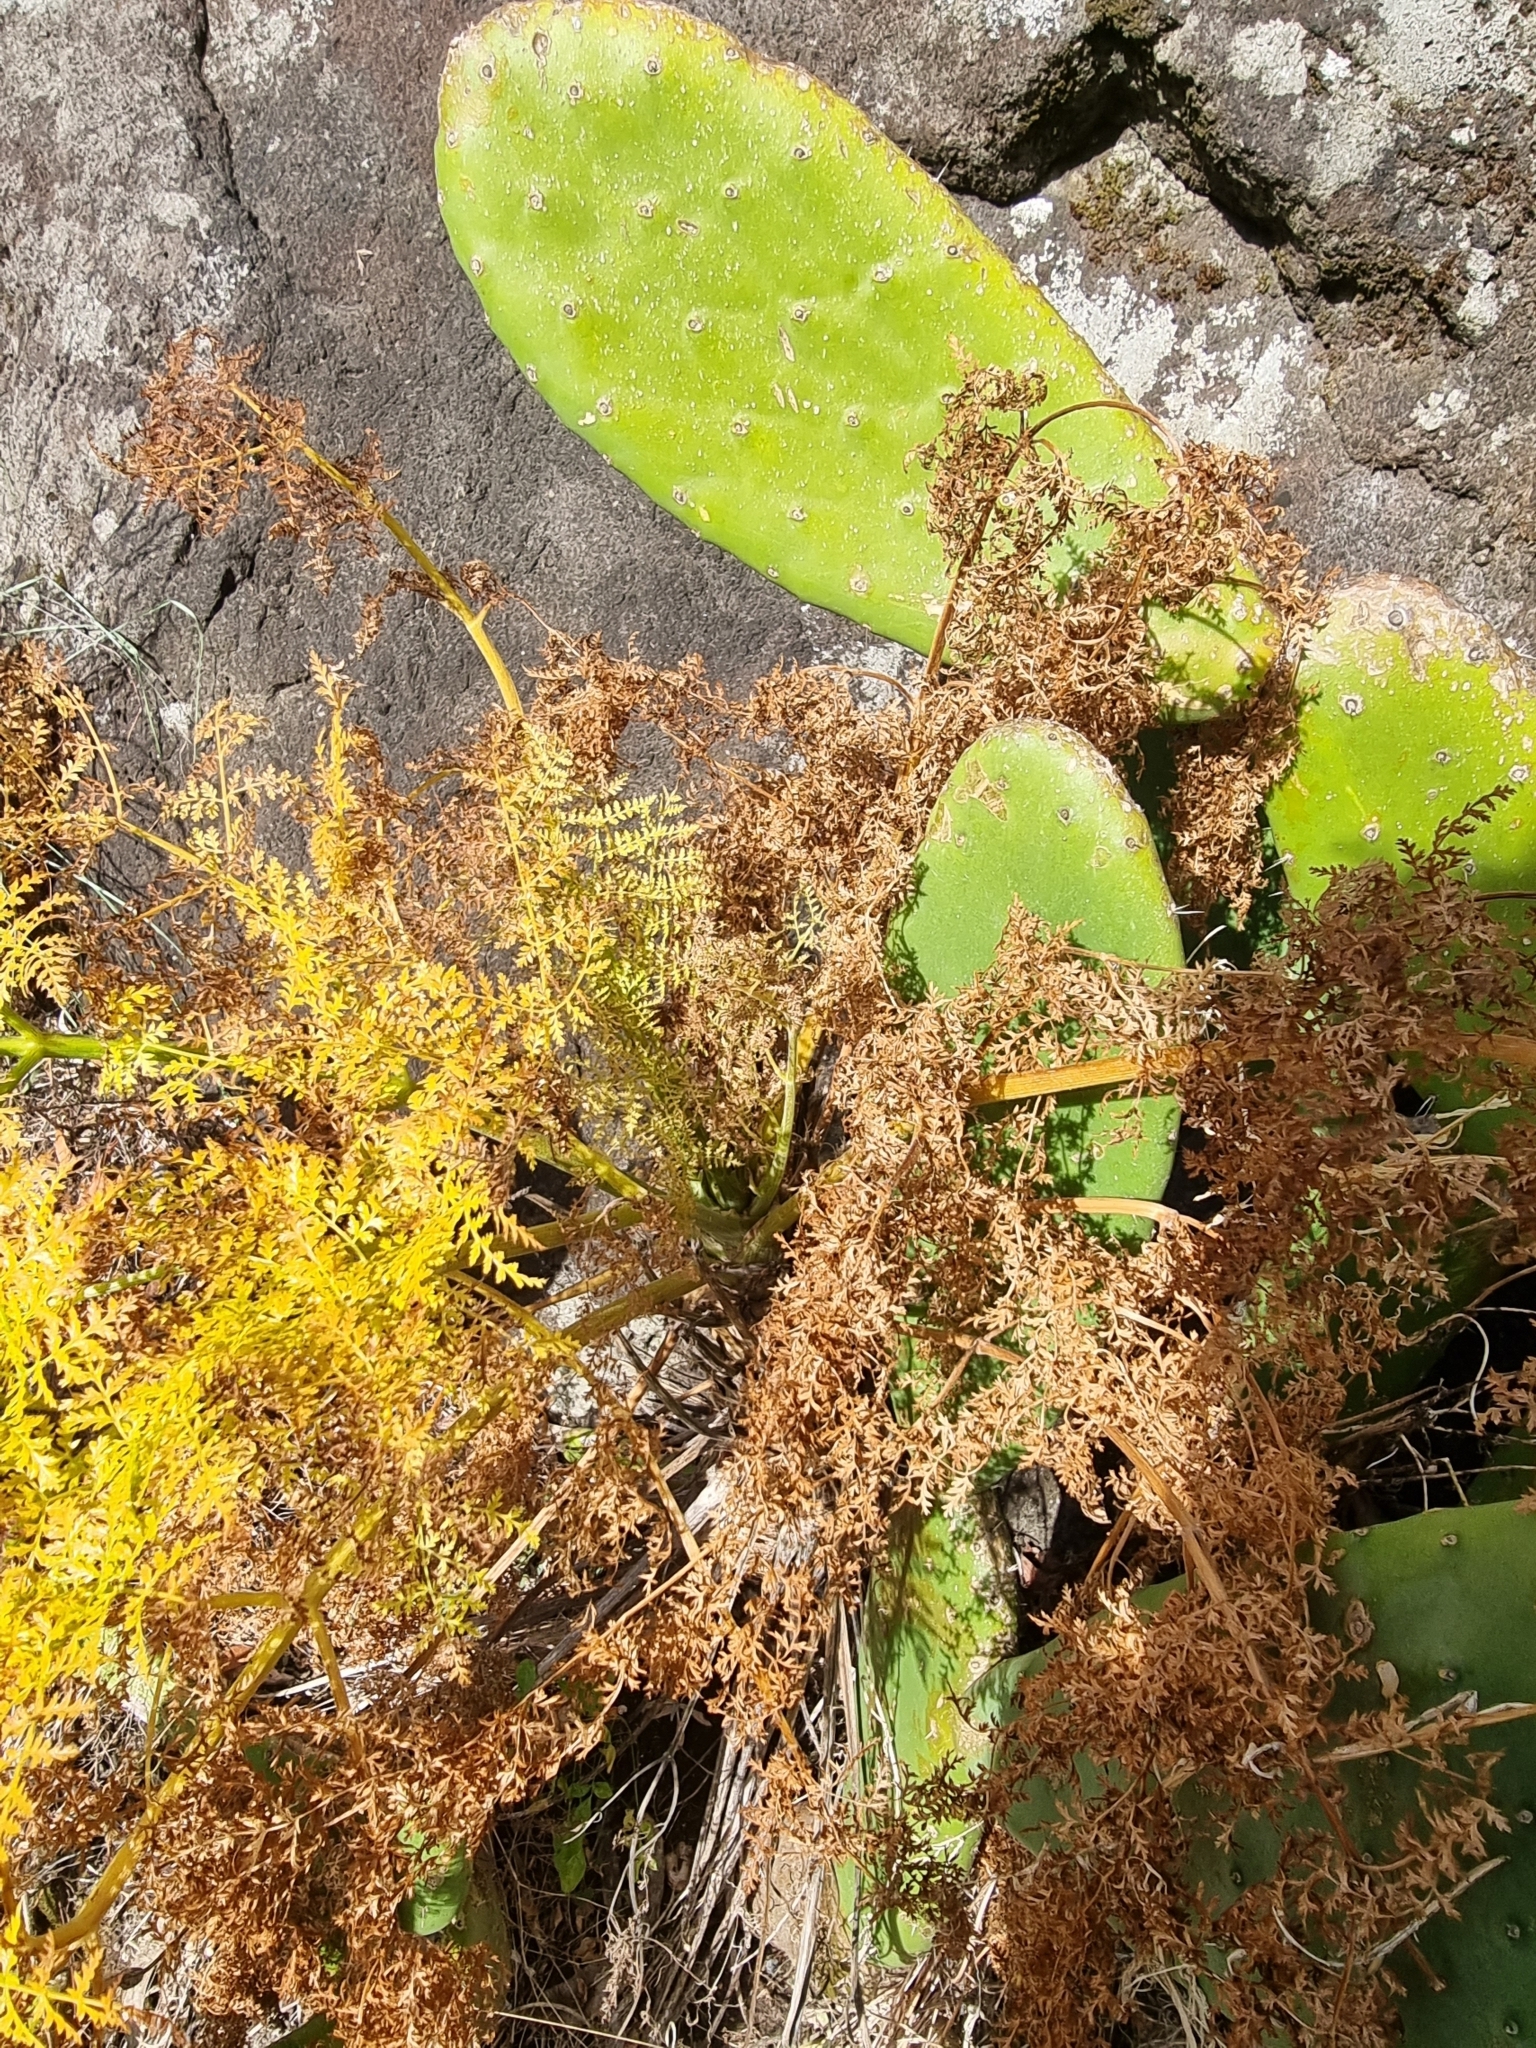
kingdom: Plantae
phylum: Tracheophyta
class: Magnoliopsida
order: Apiales
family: Apiaceae
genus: Daucus
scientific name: Daucus edulis
